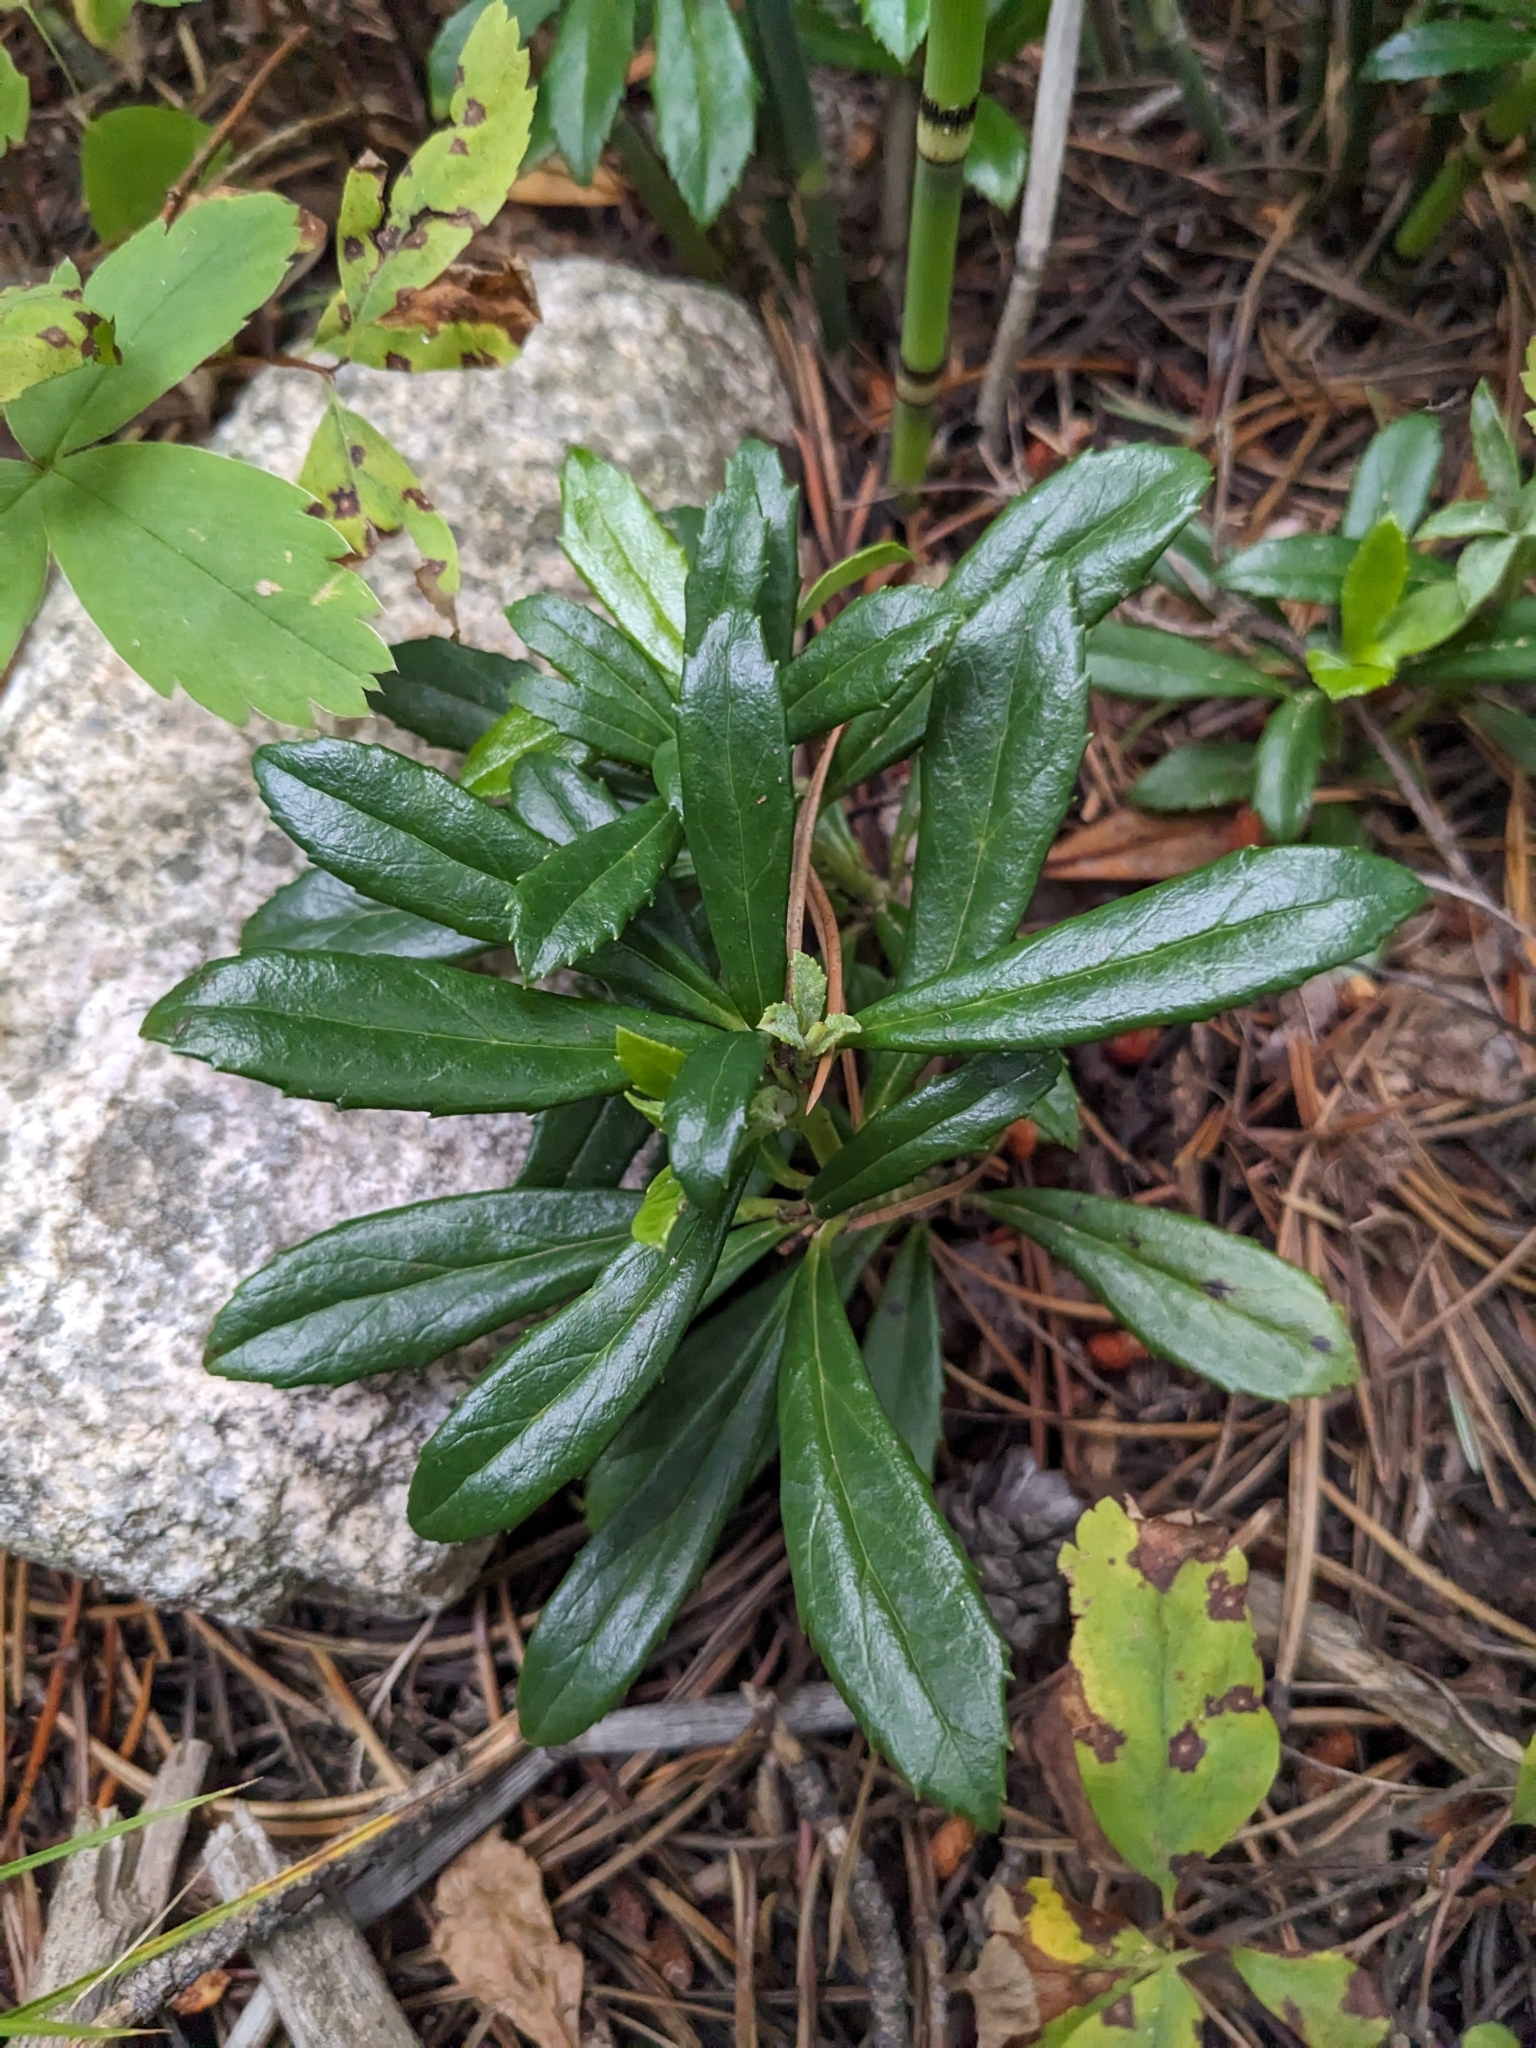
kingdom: Plantae
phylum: Tracheophyta
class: Magnoliopsida
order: Ericales
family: Ericaceae
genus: Chimaphila
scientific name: Chimaphila umbellata
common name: Pipsissewa
